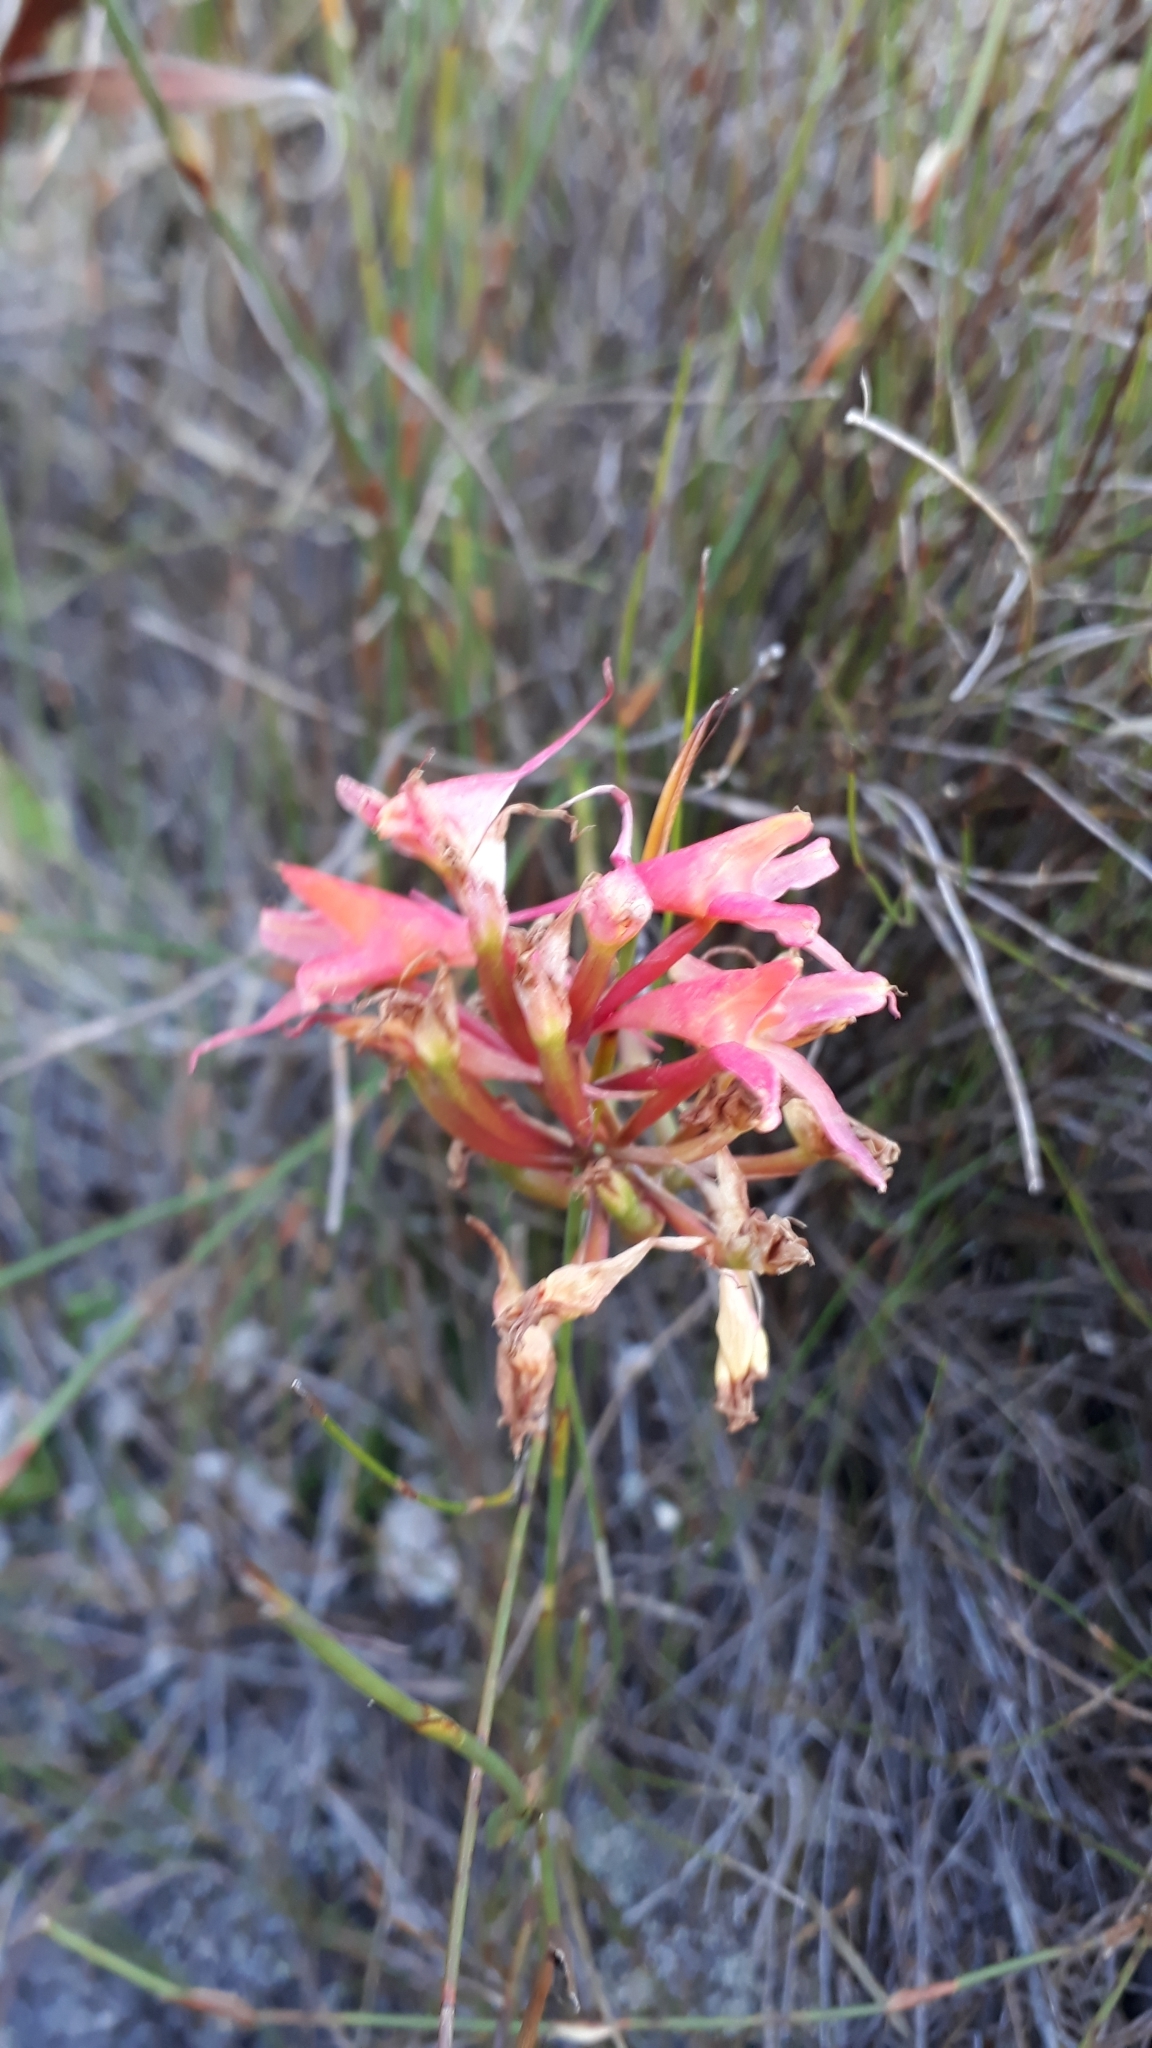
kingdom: Plantae
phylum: Tracheophyta
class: Liliopsida
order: Asparagales
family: Orchidaceae
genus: Disa
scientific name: Disa ferruginea
